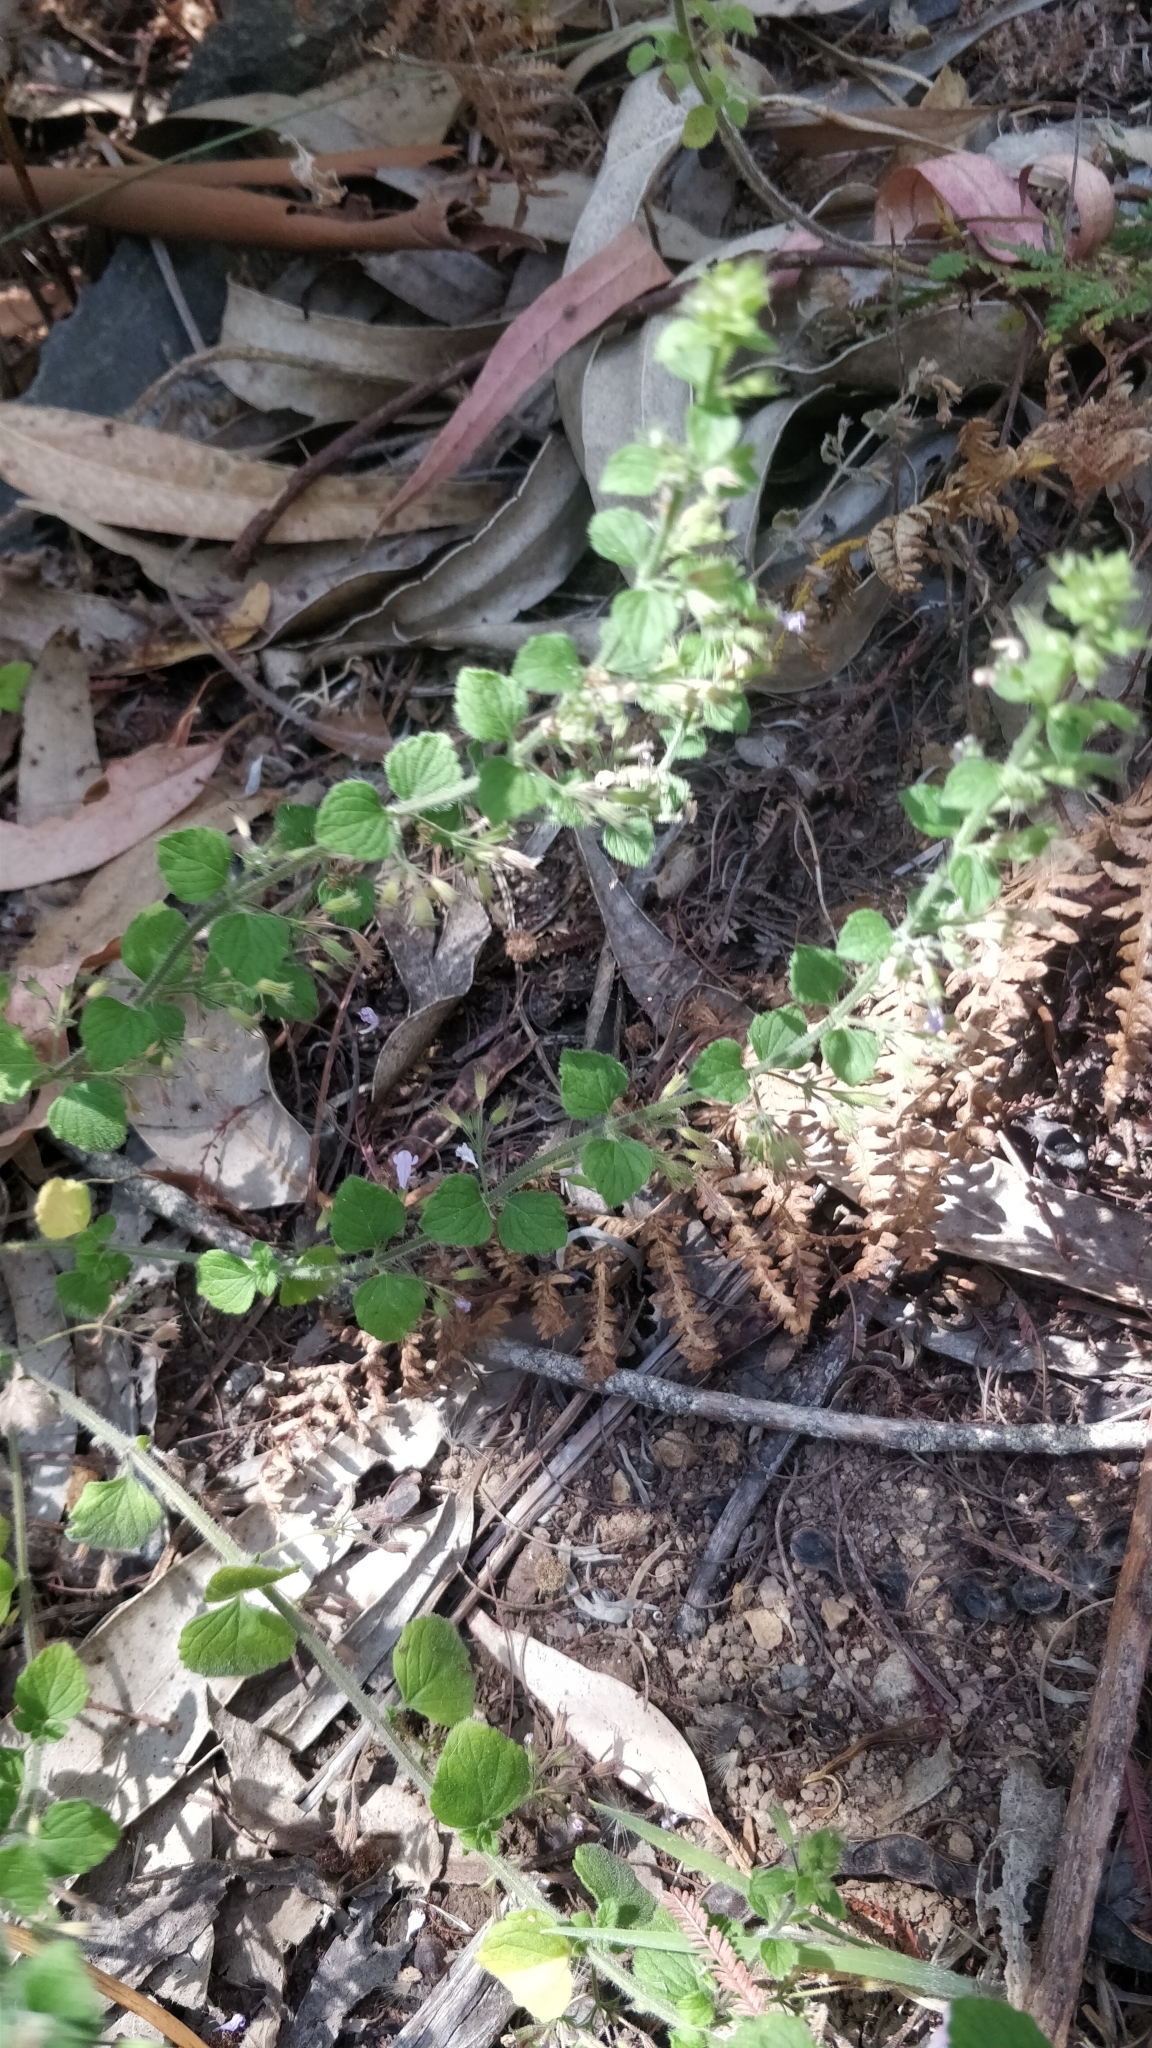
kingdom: Plantae
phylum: Tracheophyta
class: Magnoliopsida
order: Lamiales
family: Lamiaceae
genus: Clinopodium
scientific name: Clinopodium menthifolium
